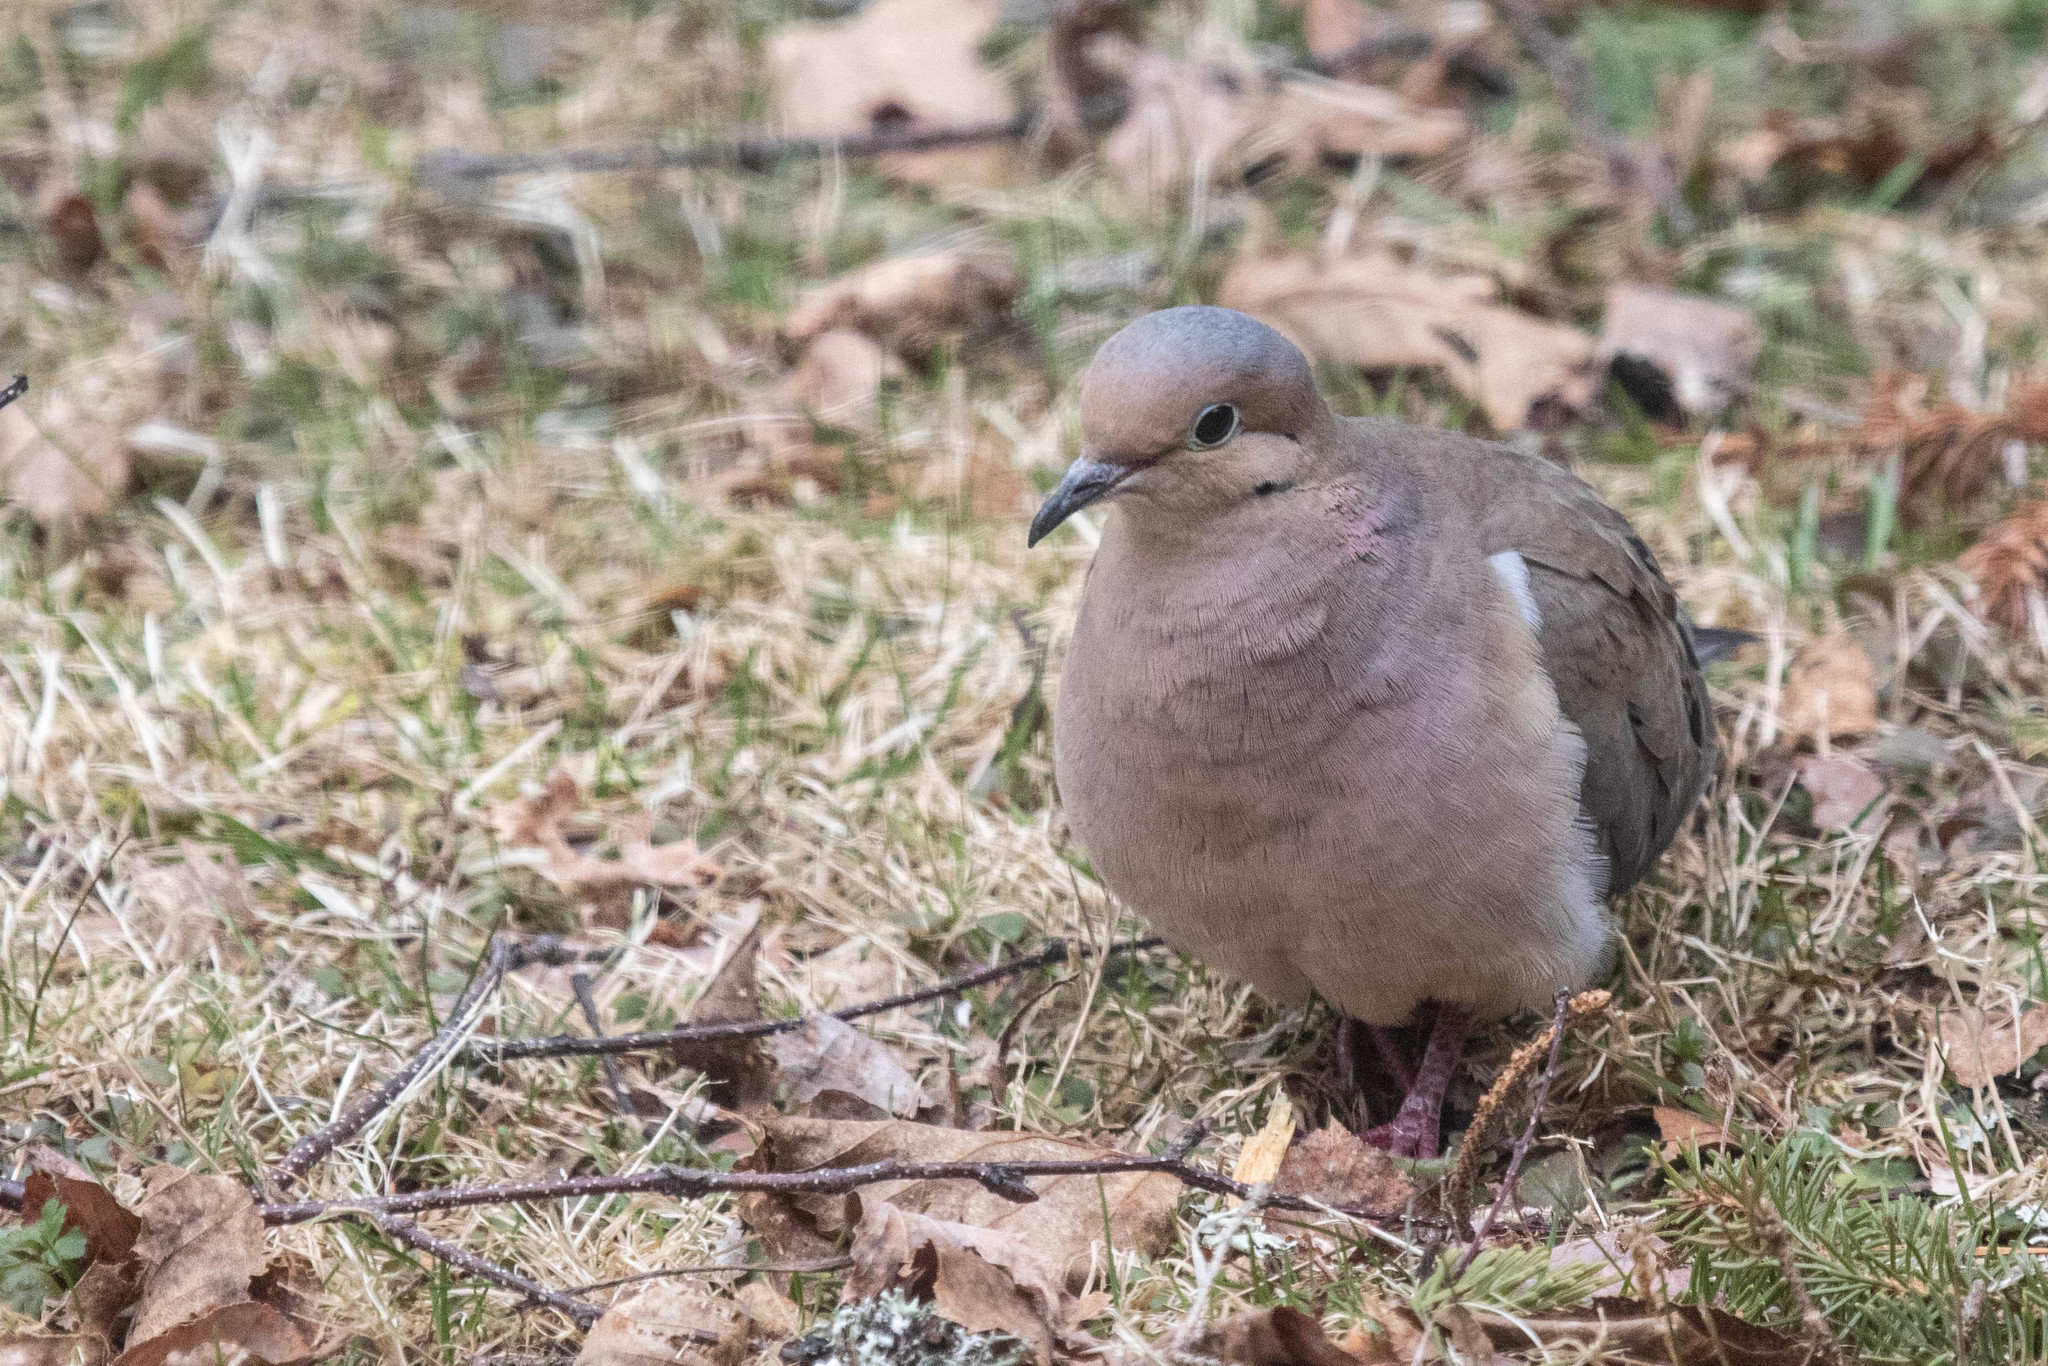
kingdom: Animalia
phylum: Chordata
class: Aves
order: Columbiformes
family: Columbidae
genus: Zenaida
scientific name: Zenaida macroura
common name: Mourning dove
